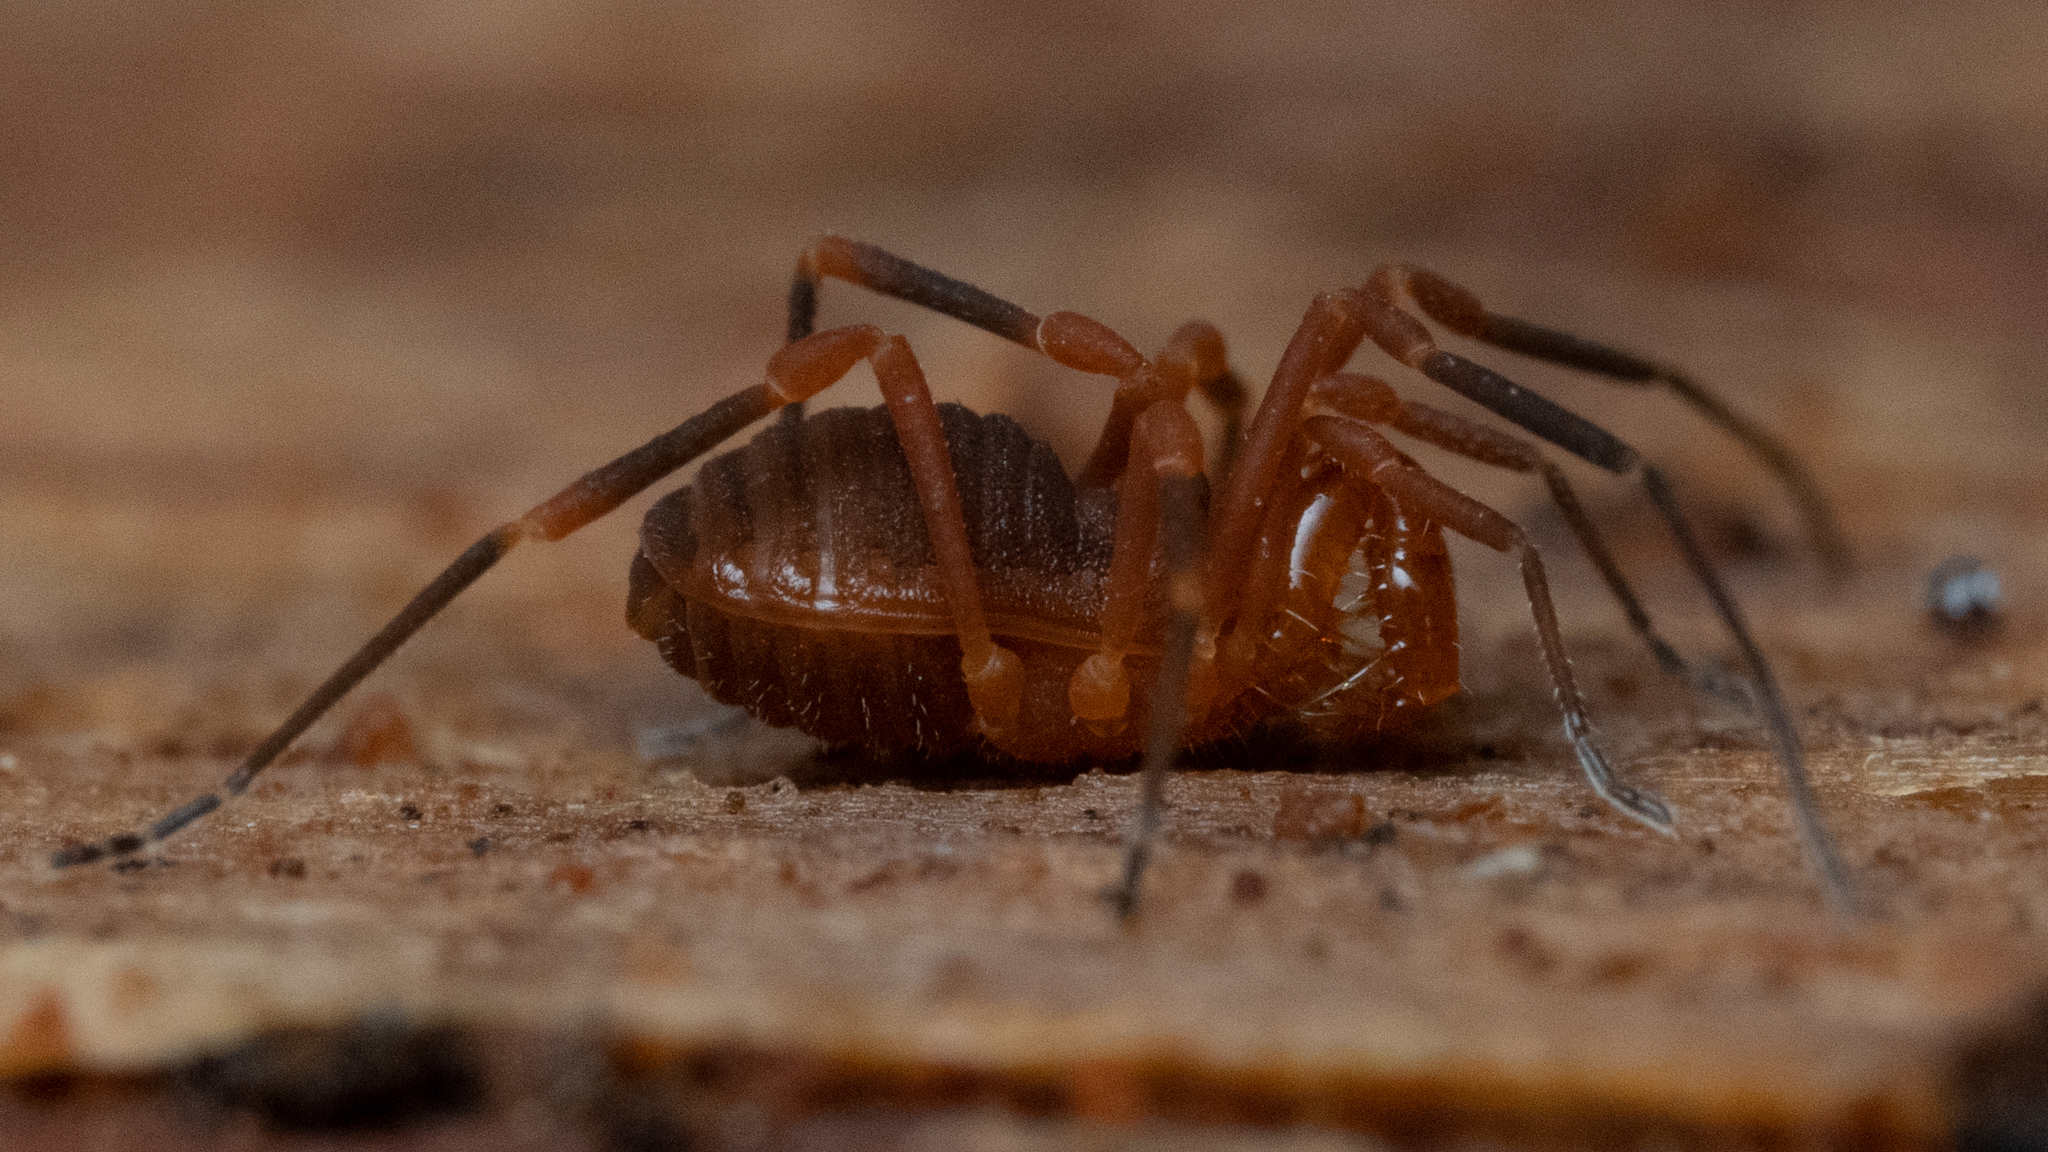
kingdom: Animalia
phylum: Arthropoda
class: Arachnida
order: Opiliones
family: Paranonychidae
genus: Sclerobunus
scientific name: Sclerobunus idahoensis
